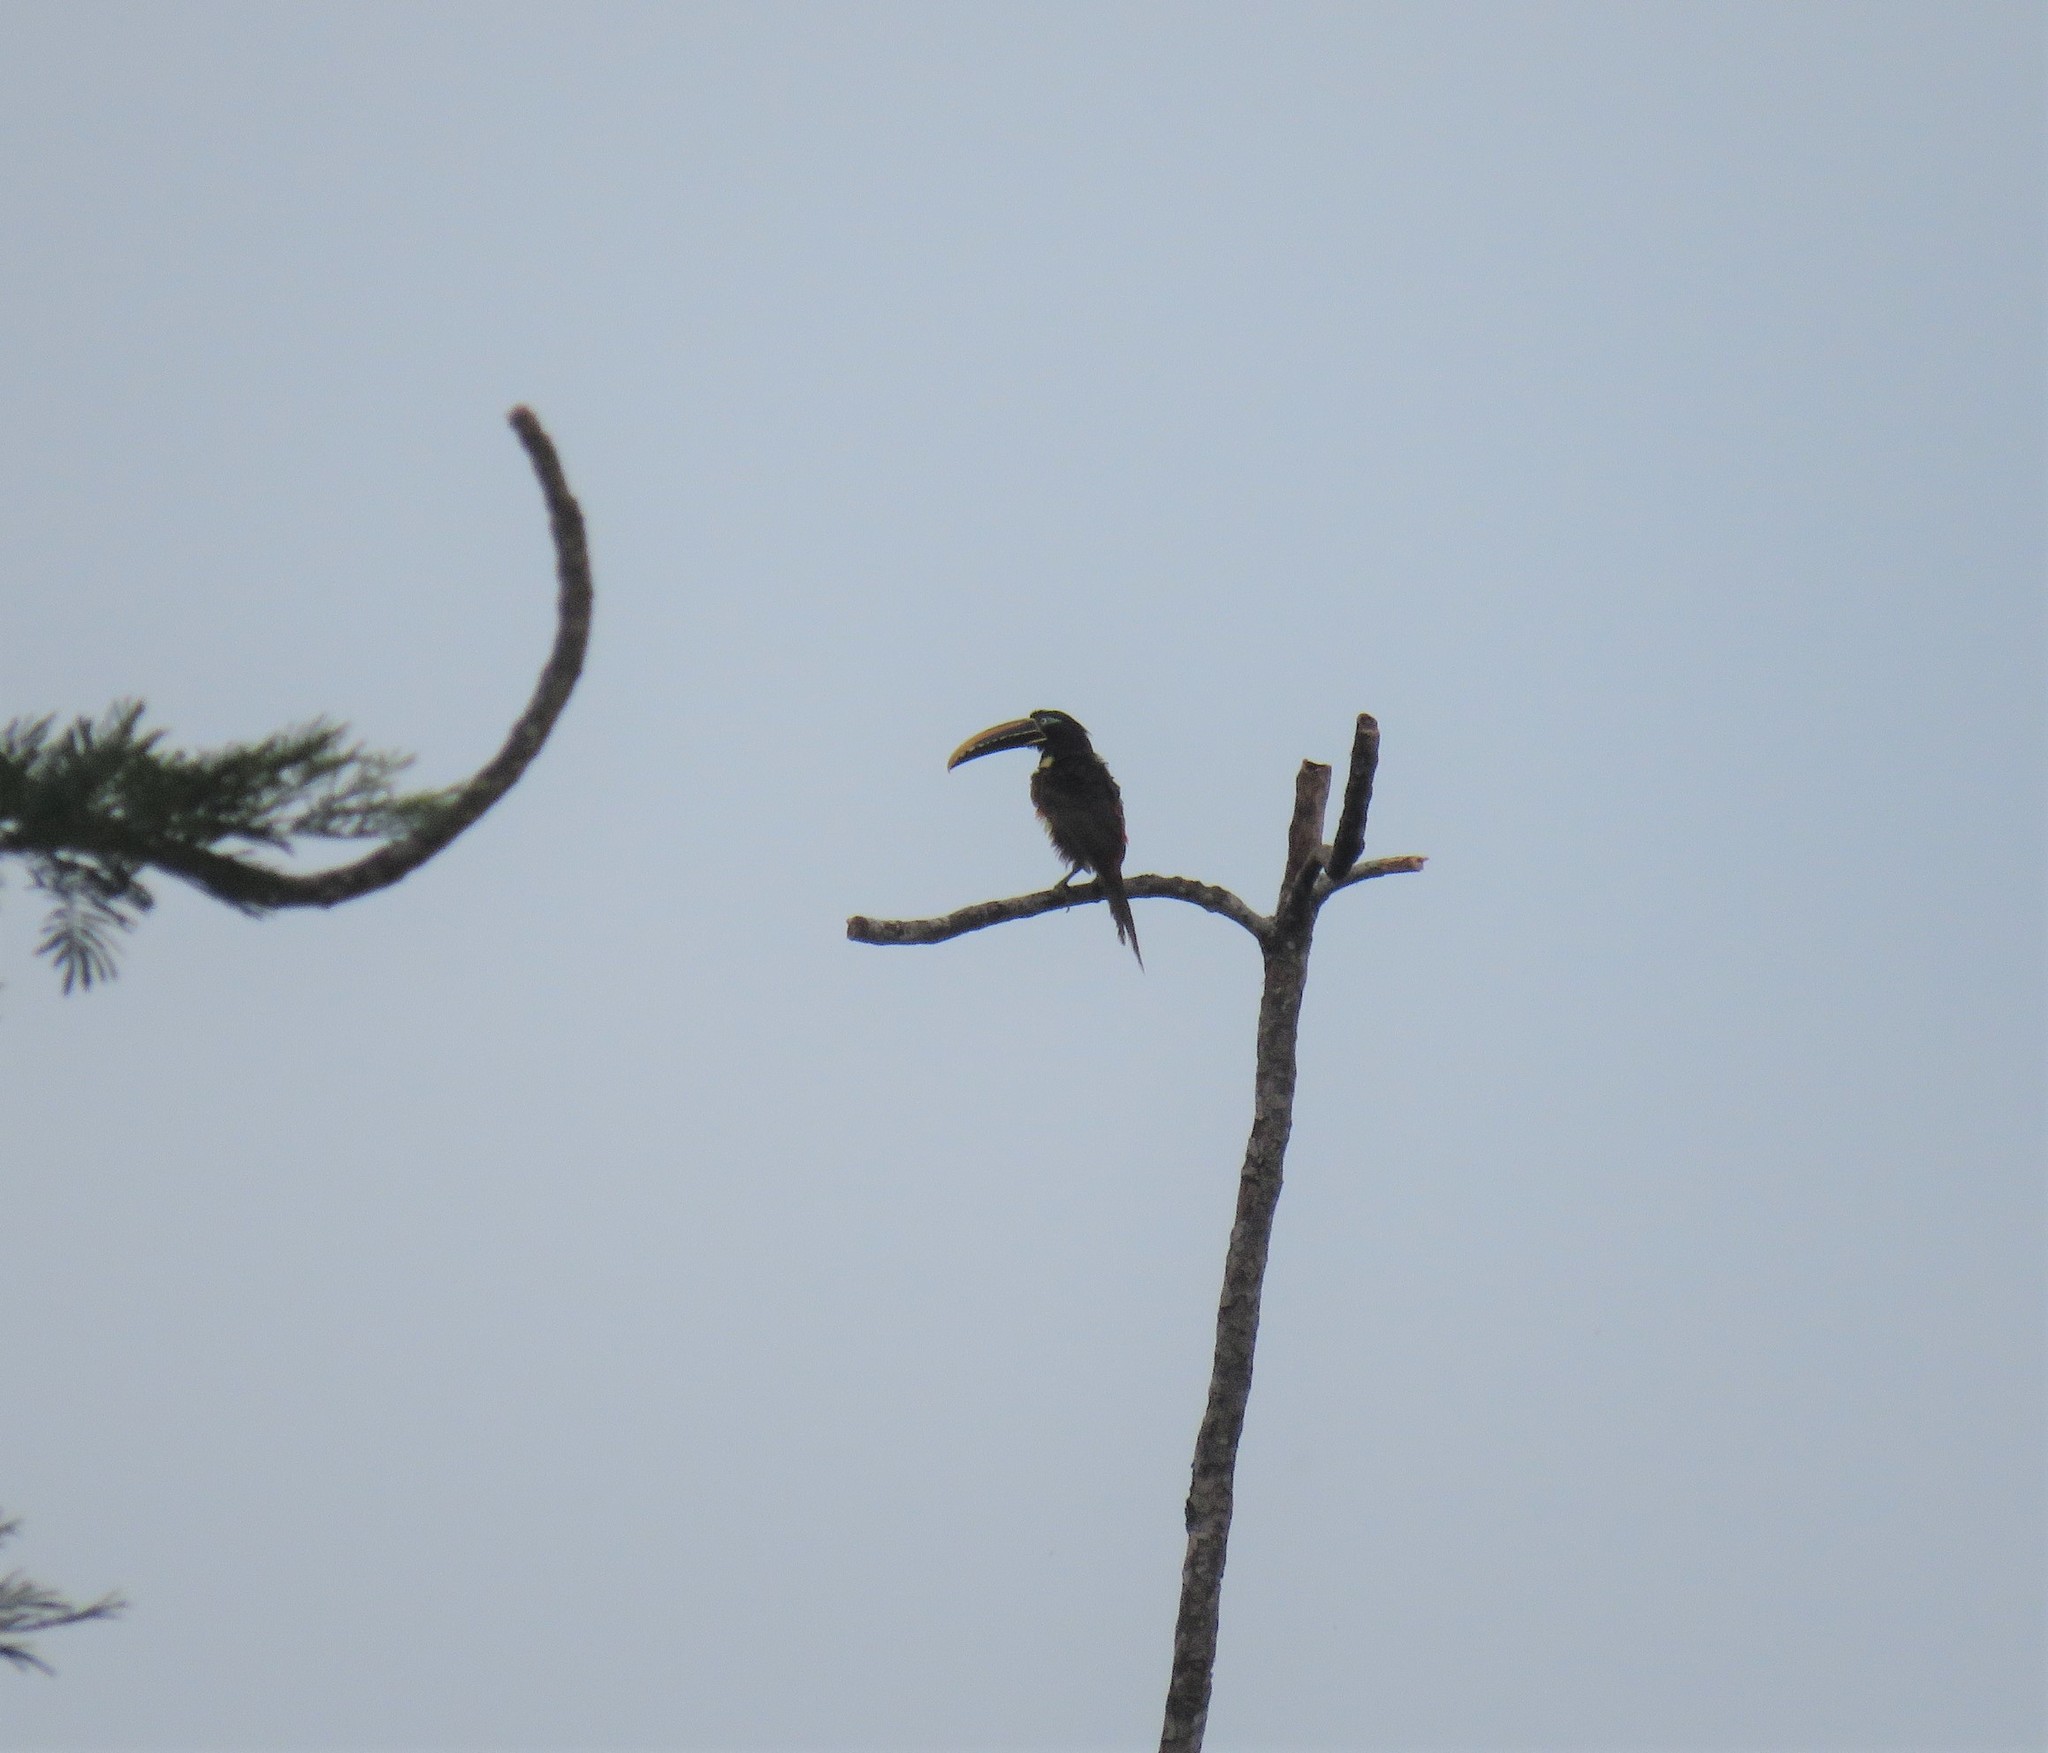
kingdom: Animalia
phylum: Chordata
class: Aves
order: Piciformes
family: Ramphastidae
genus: Pteroglossus
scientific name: Pteroglossus castanotis
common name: Chestnut-eared aracari
